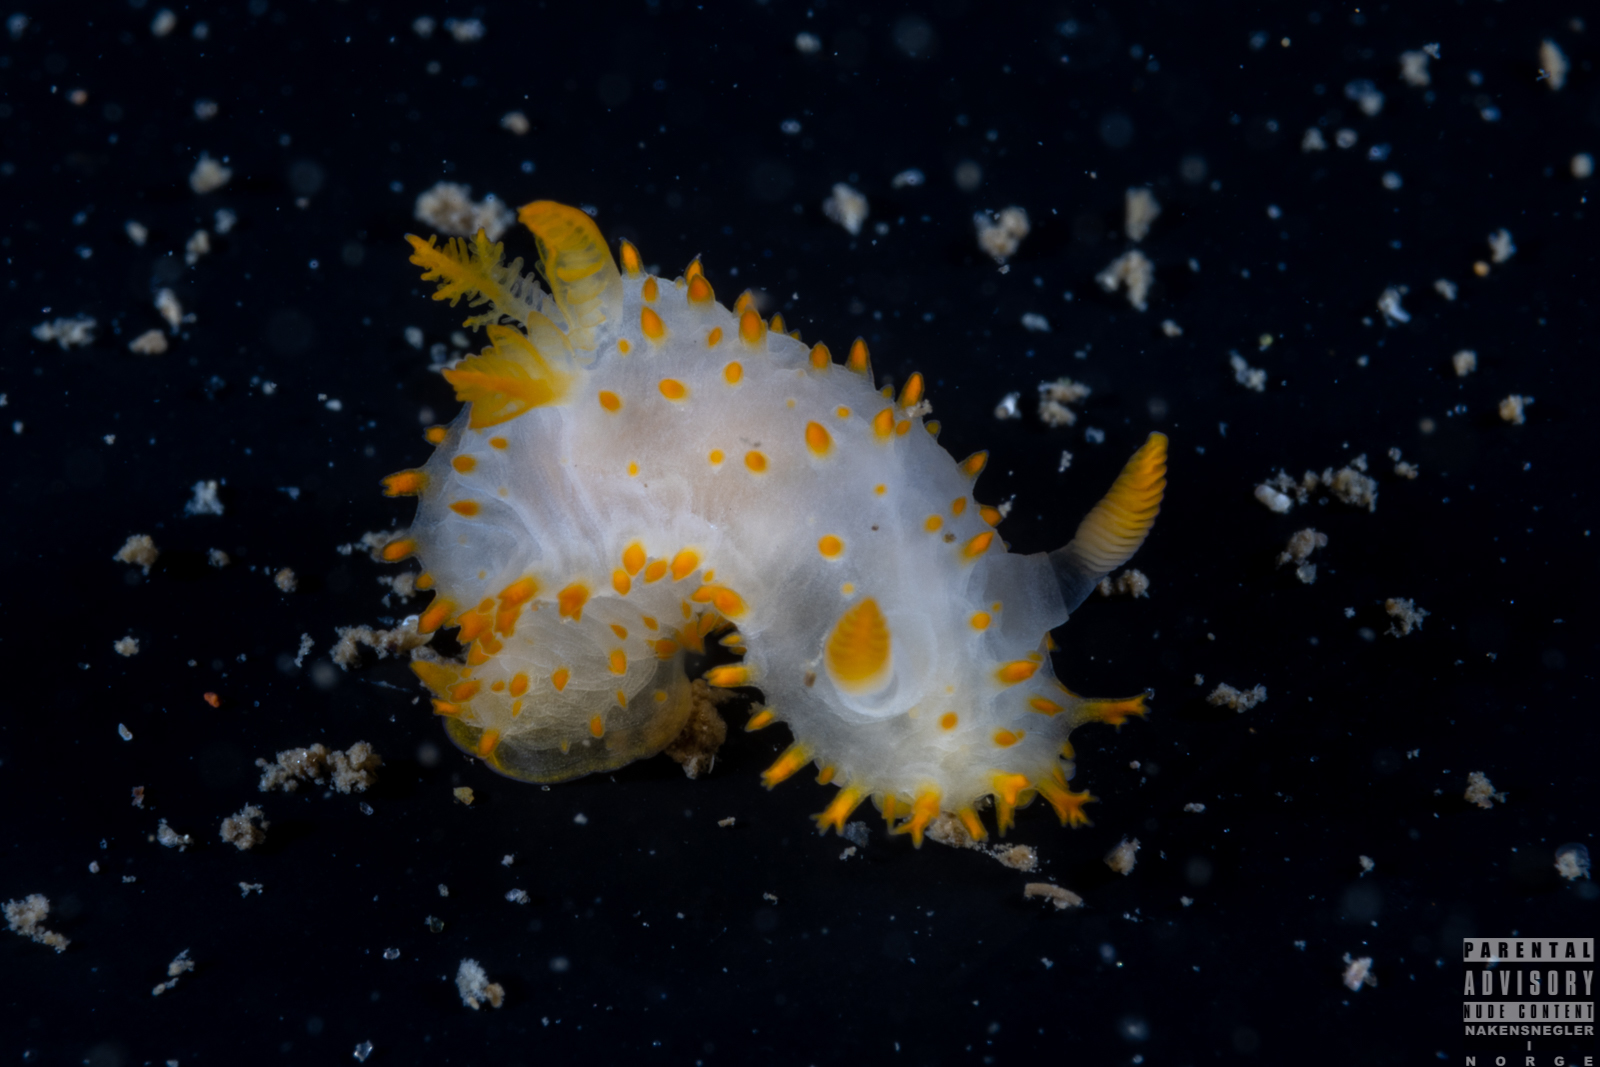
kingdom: Animalia
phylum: Mollusca
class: Gastropoda
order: Nudibranchia
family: Polyceridae
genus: Crimora
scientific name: Crimora papillata
